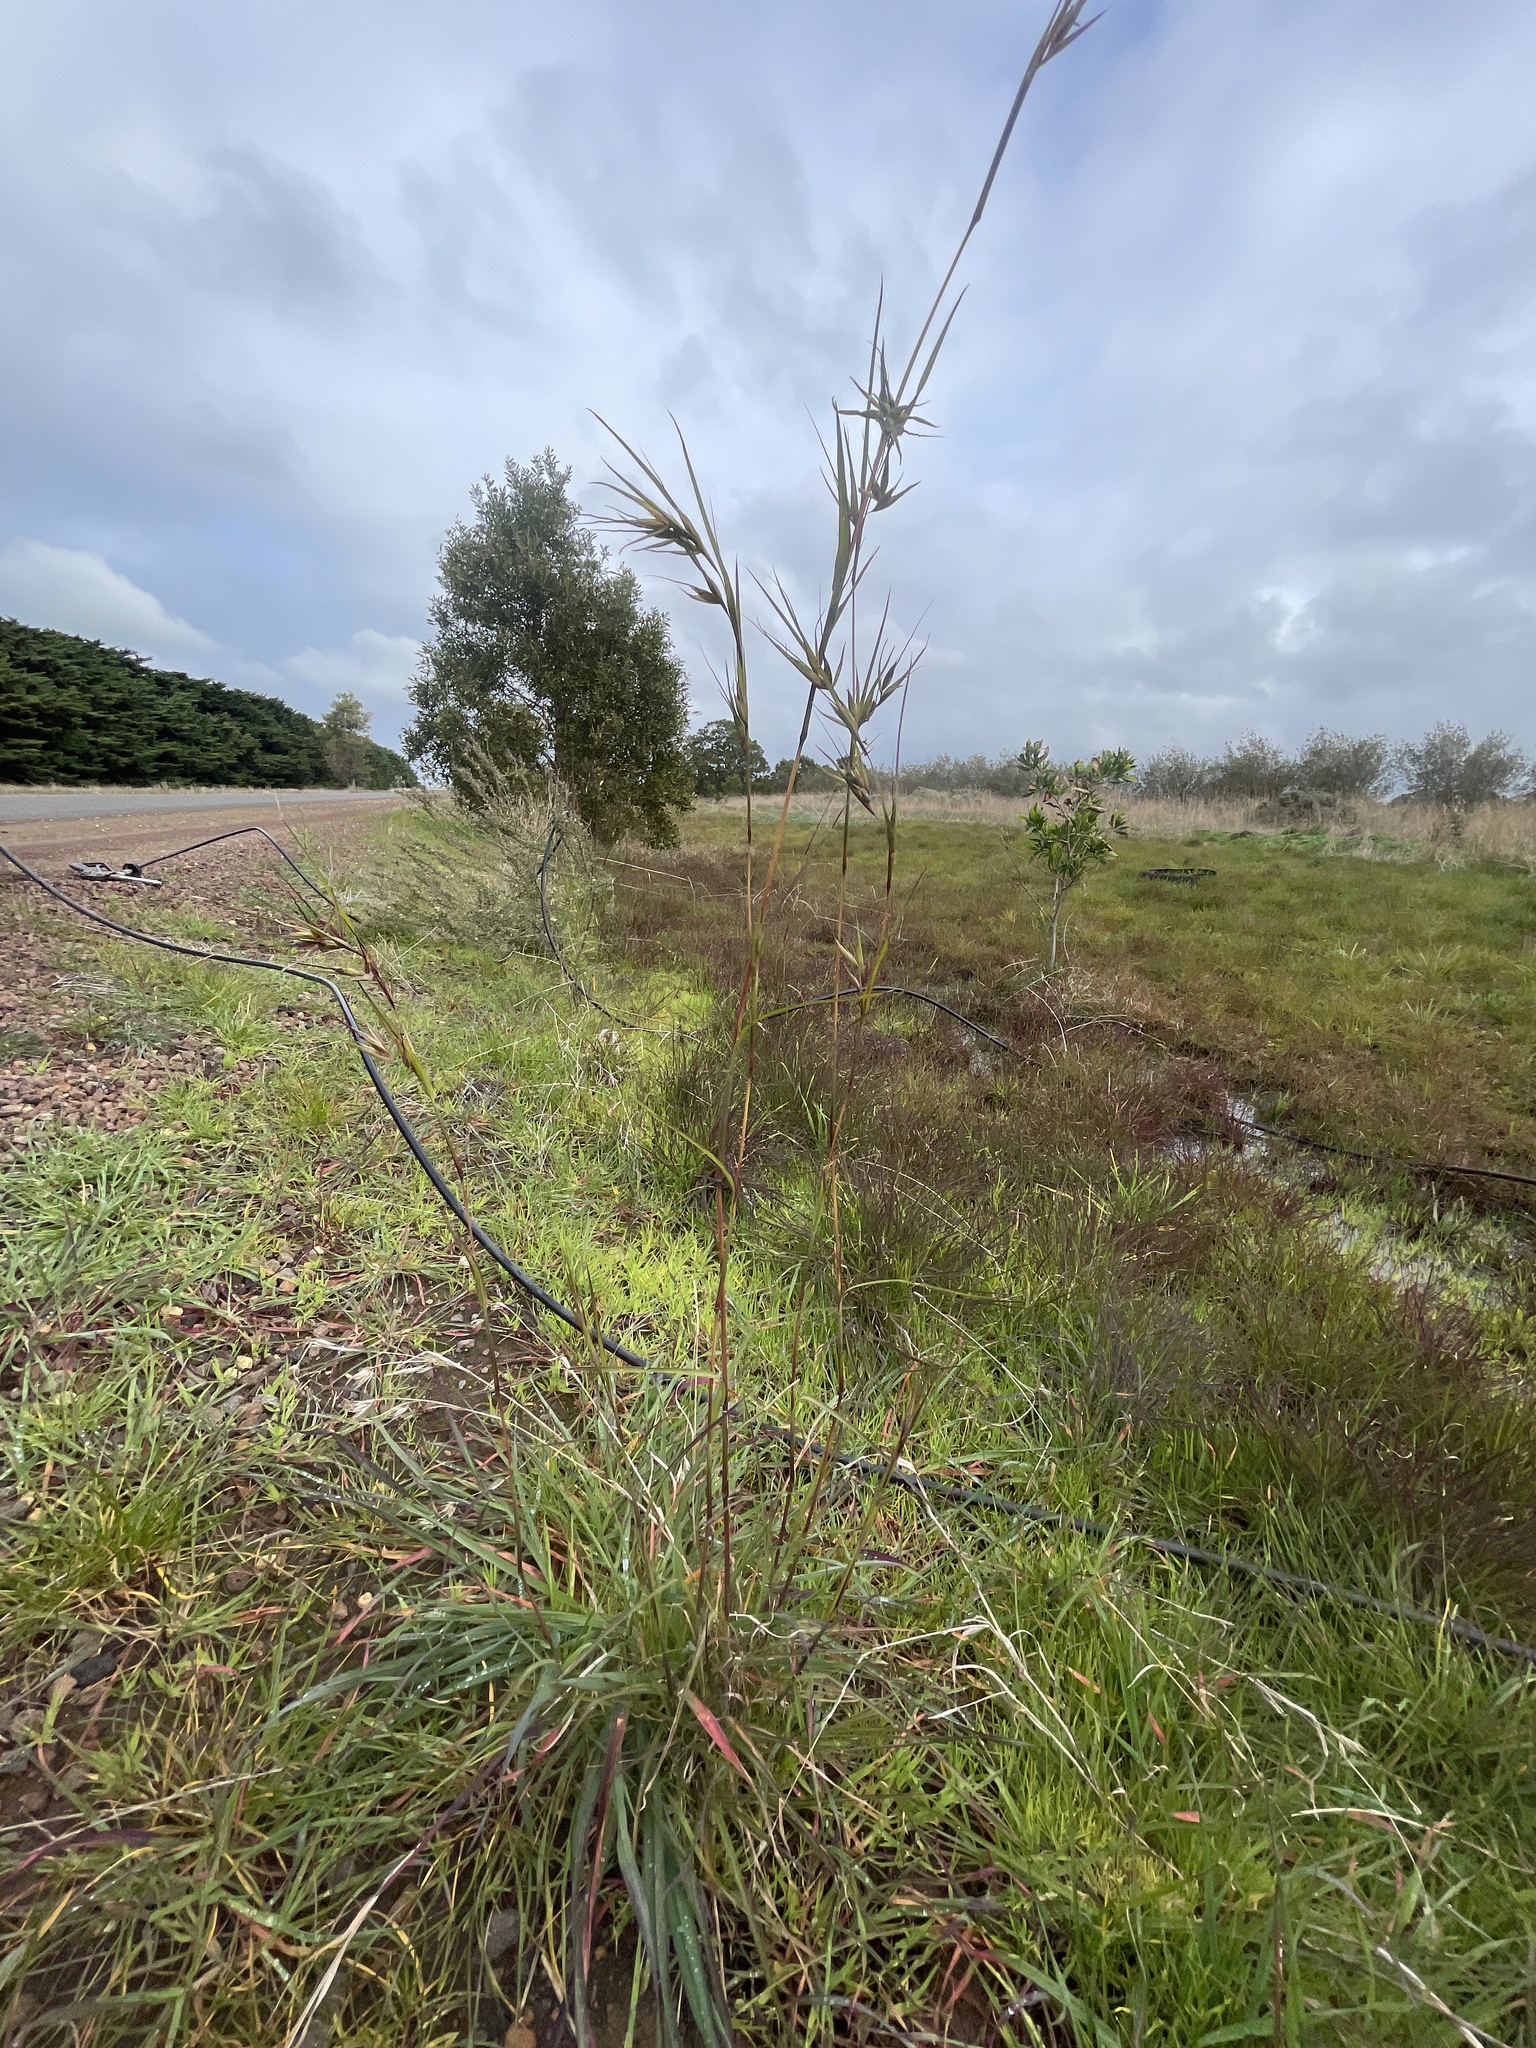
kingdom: Plantae
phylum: Tracheophyta
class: Liliopsida
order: Poales
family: Poaceae
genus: Themeda
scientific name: Themeda triandra
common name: Kangaroo grass
